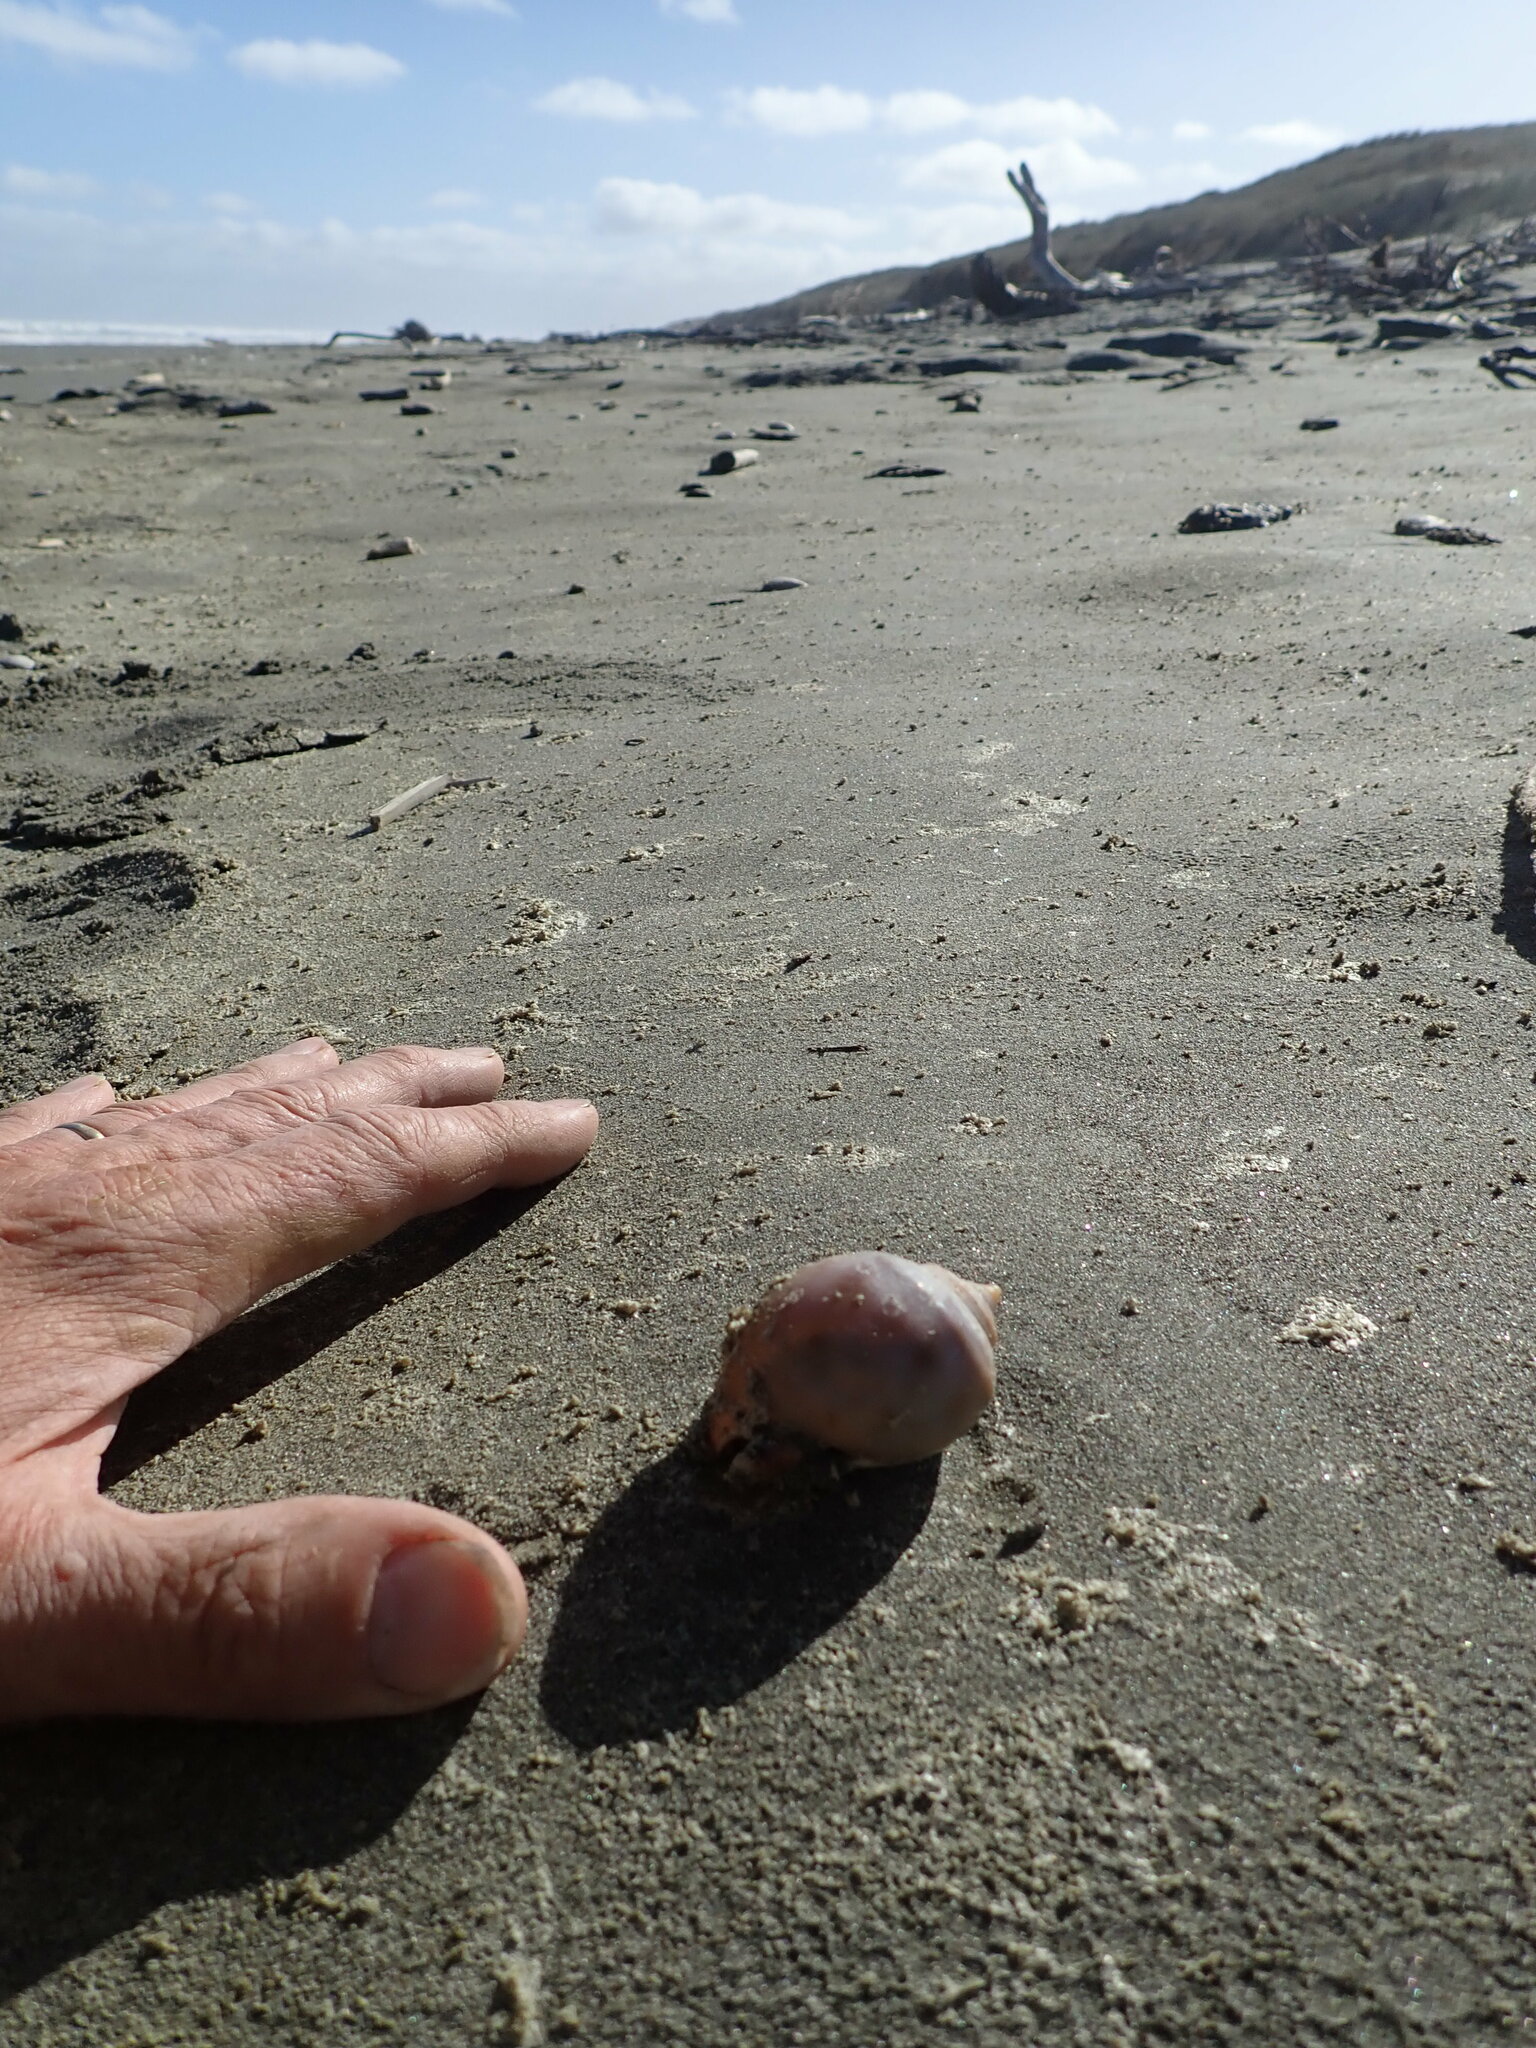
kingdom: Animalia
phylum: Arthropoda
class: Insecta
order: Coleoptera
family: Coccinellidae
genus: Coccinella
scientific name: Coccinella undecimpunctata
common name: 11-spot ladybird
